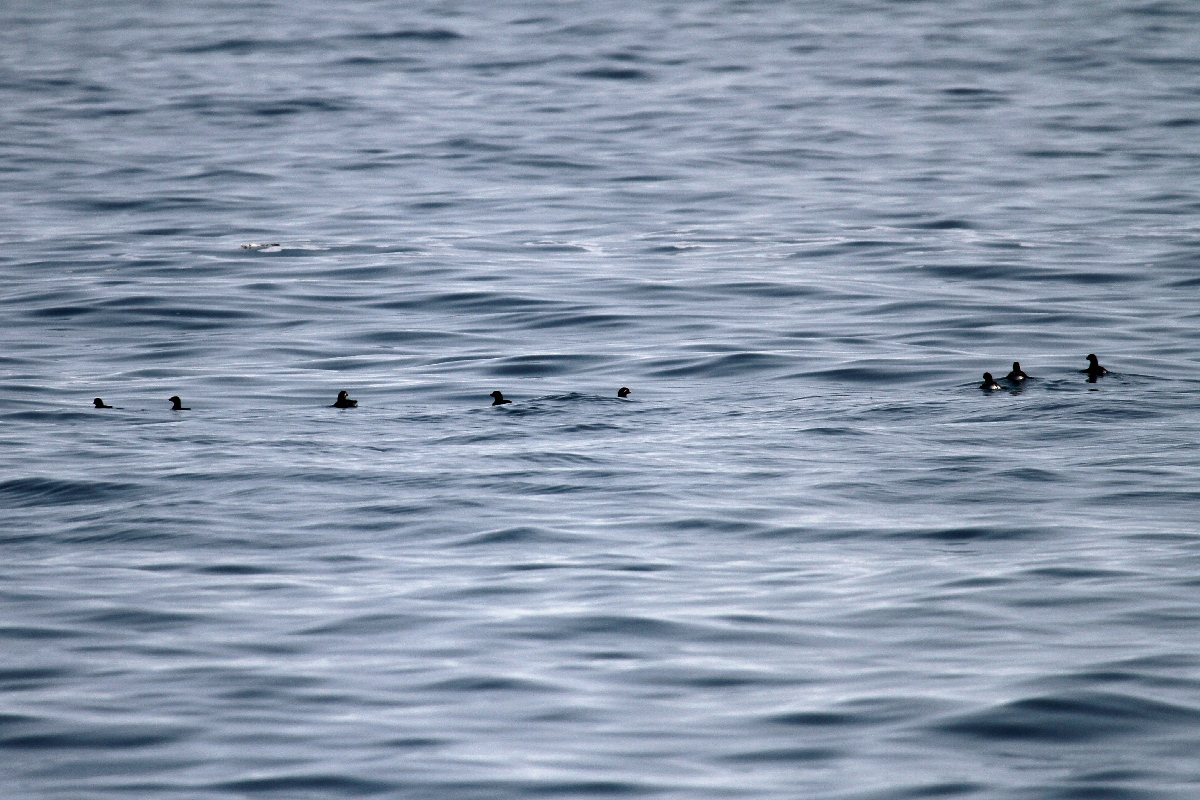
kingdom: Animalia
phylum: Chordata
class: Aves
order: Charadriiformes
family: Alcidae
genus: Aethia
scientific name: Aethia psittacula
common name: Parakeet auklet
